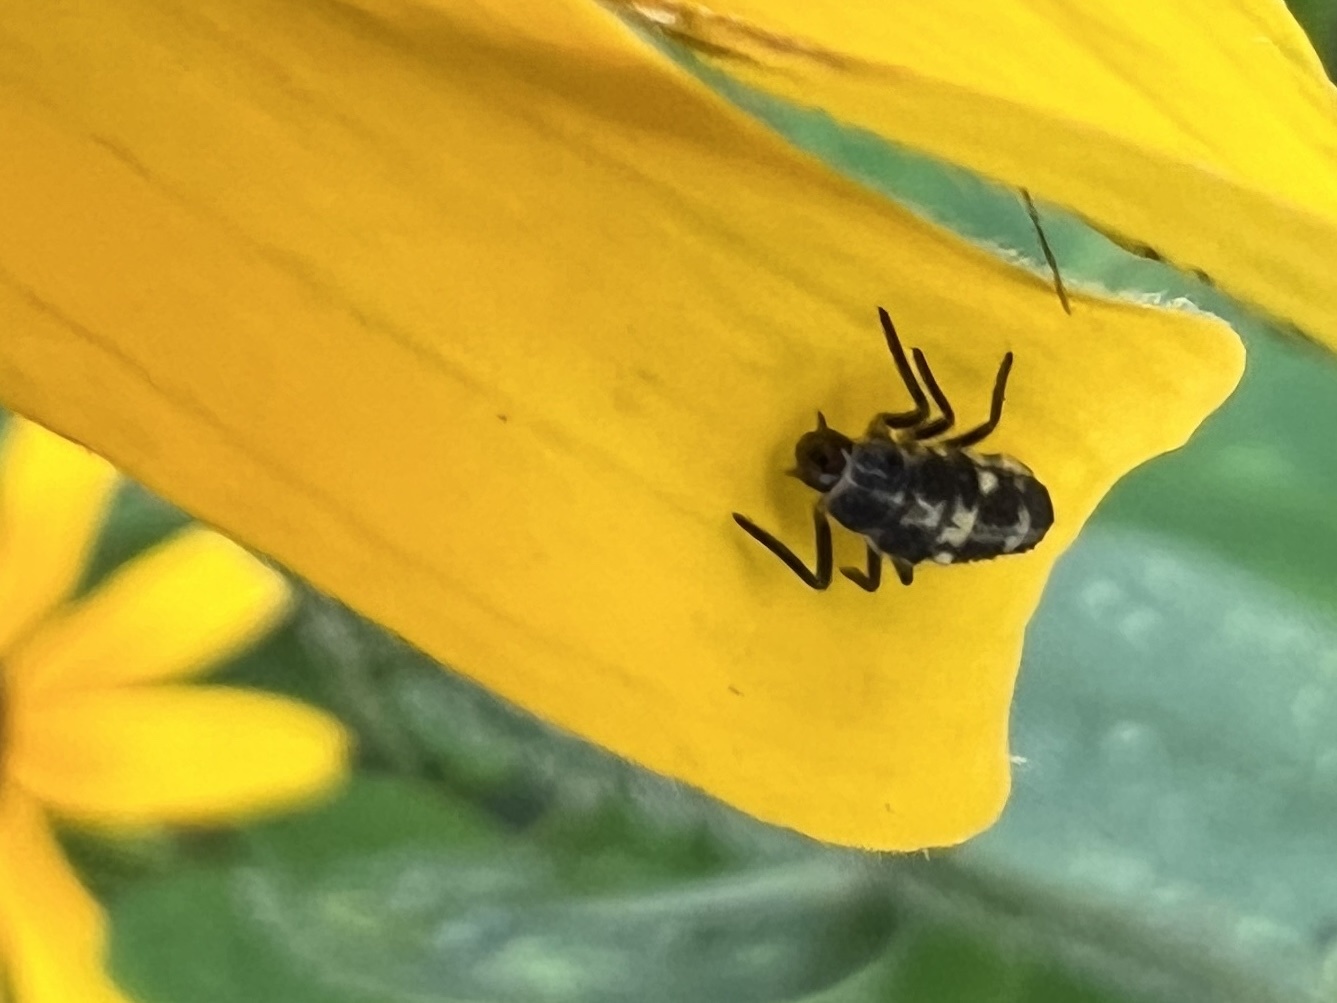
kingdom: Animalia
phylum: Arthropoda
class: Insecta
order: Coleoptera
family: Coccinellidae
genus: Propylaea
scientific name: Propylaea quatuordecimpunctata
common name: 14-spotted ladybird beetle
